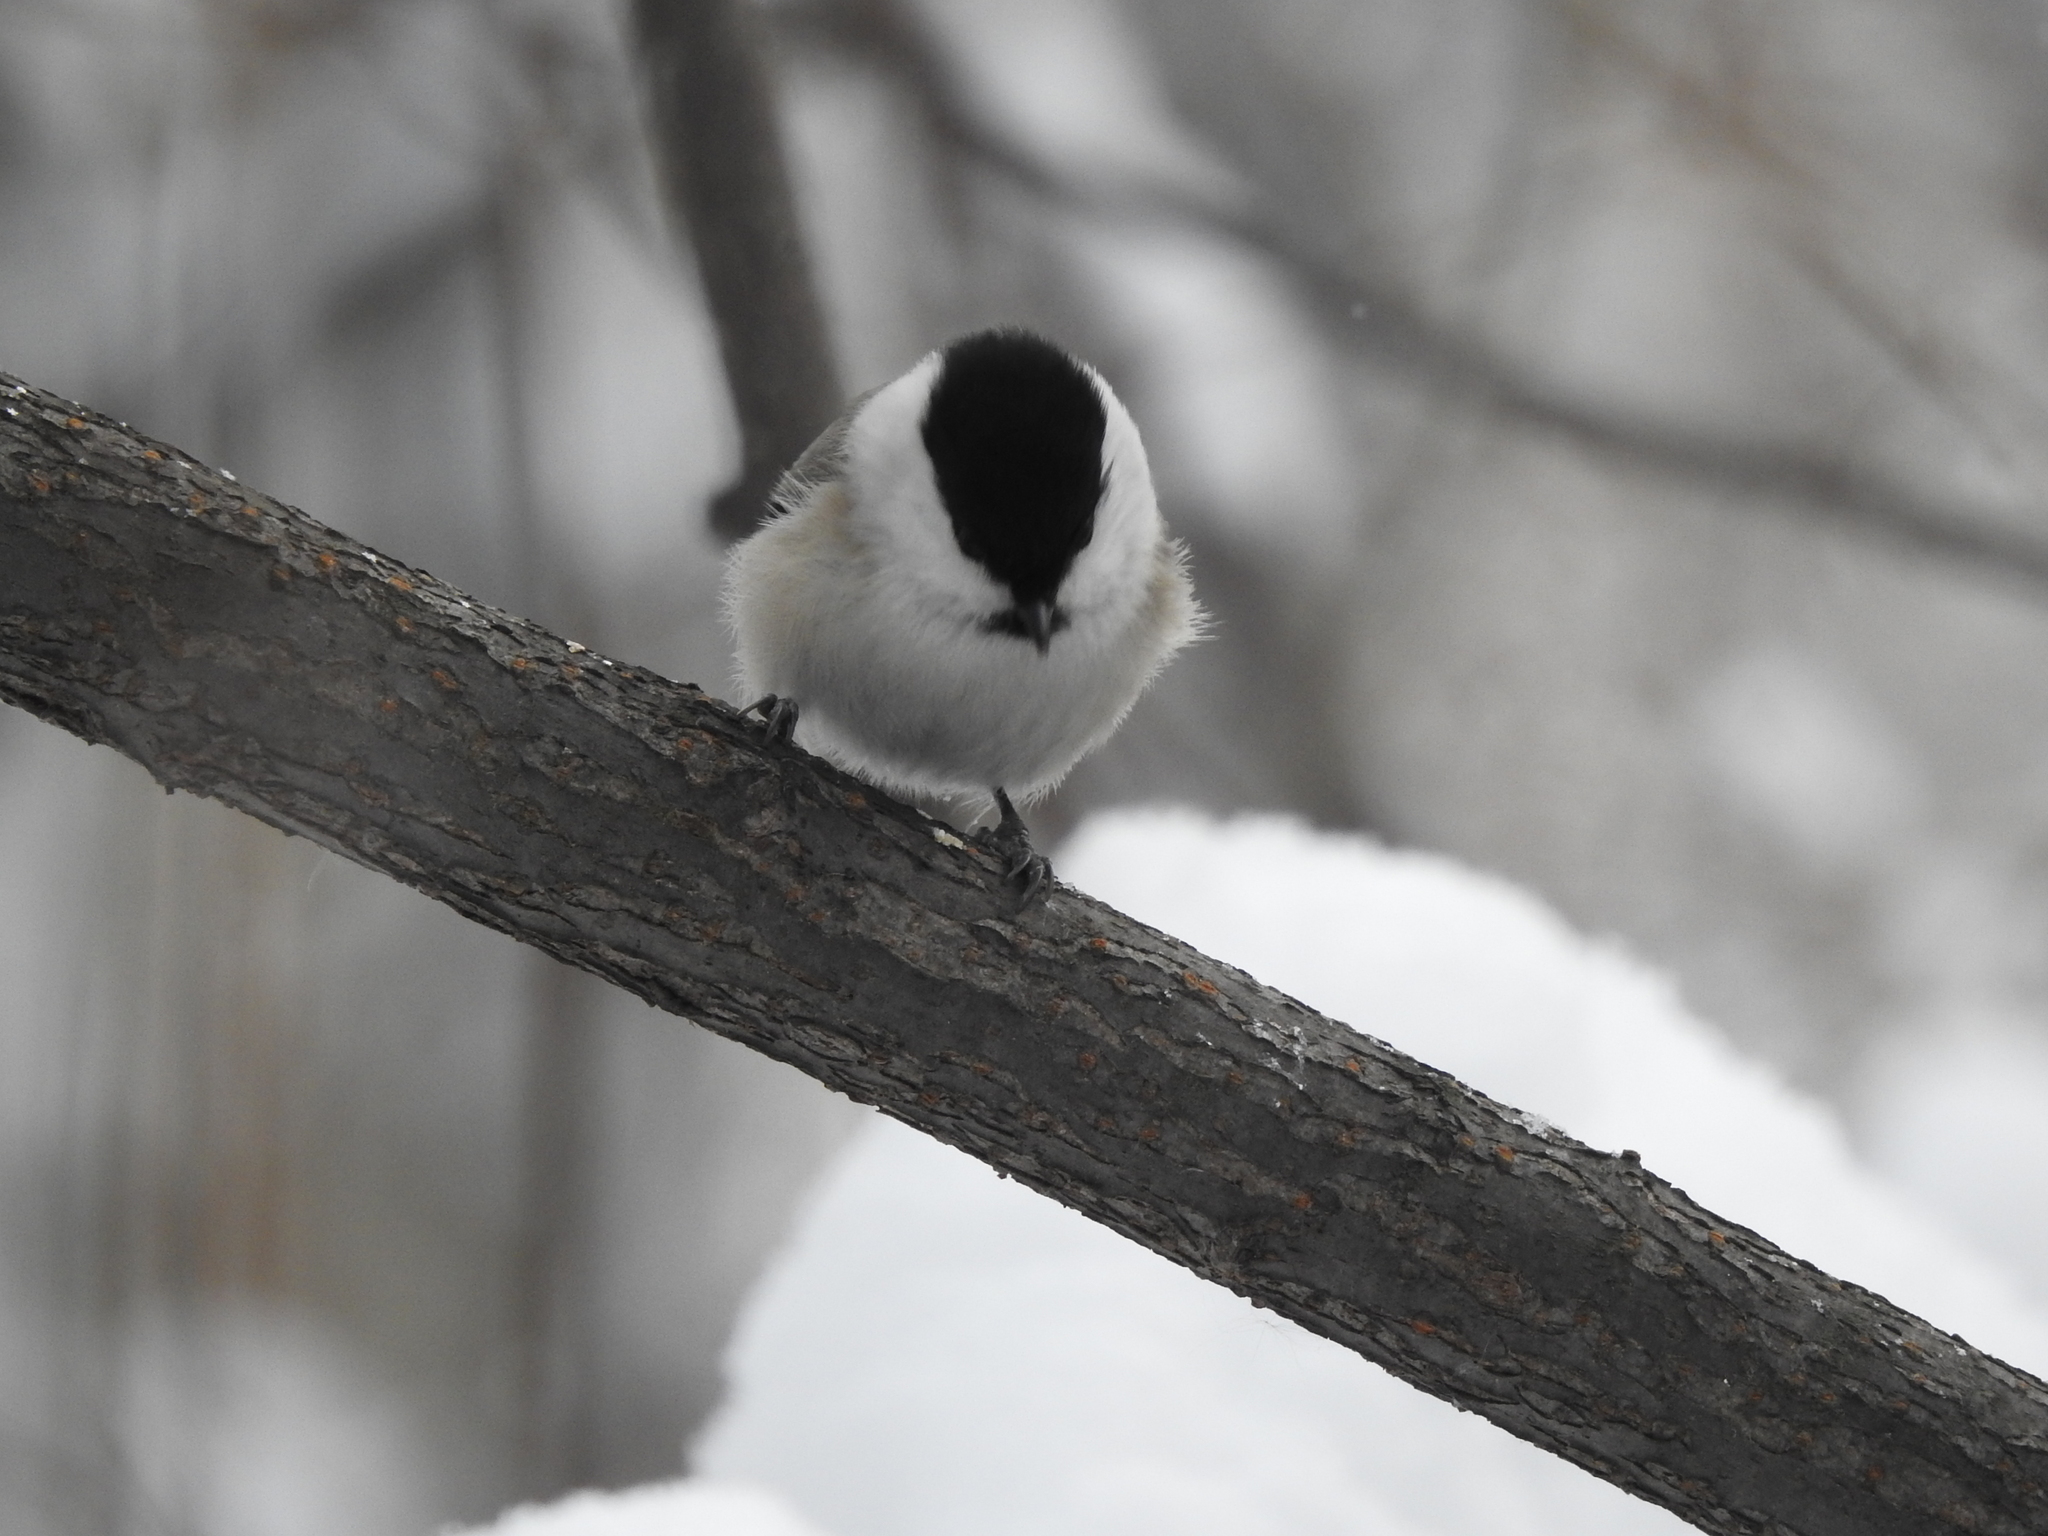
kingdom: Animalia
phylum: Chordata
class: Aves
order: Passeriformes
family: Paridae
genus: Poecile
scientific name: Poecile montanus
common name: Willow tit
